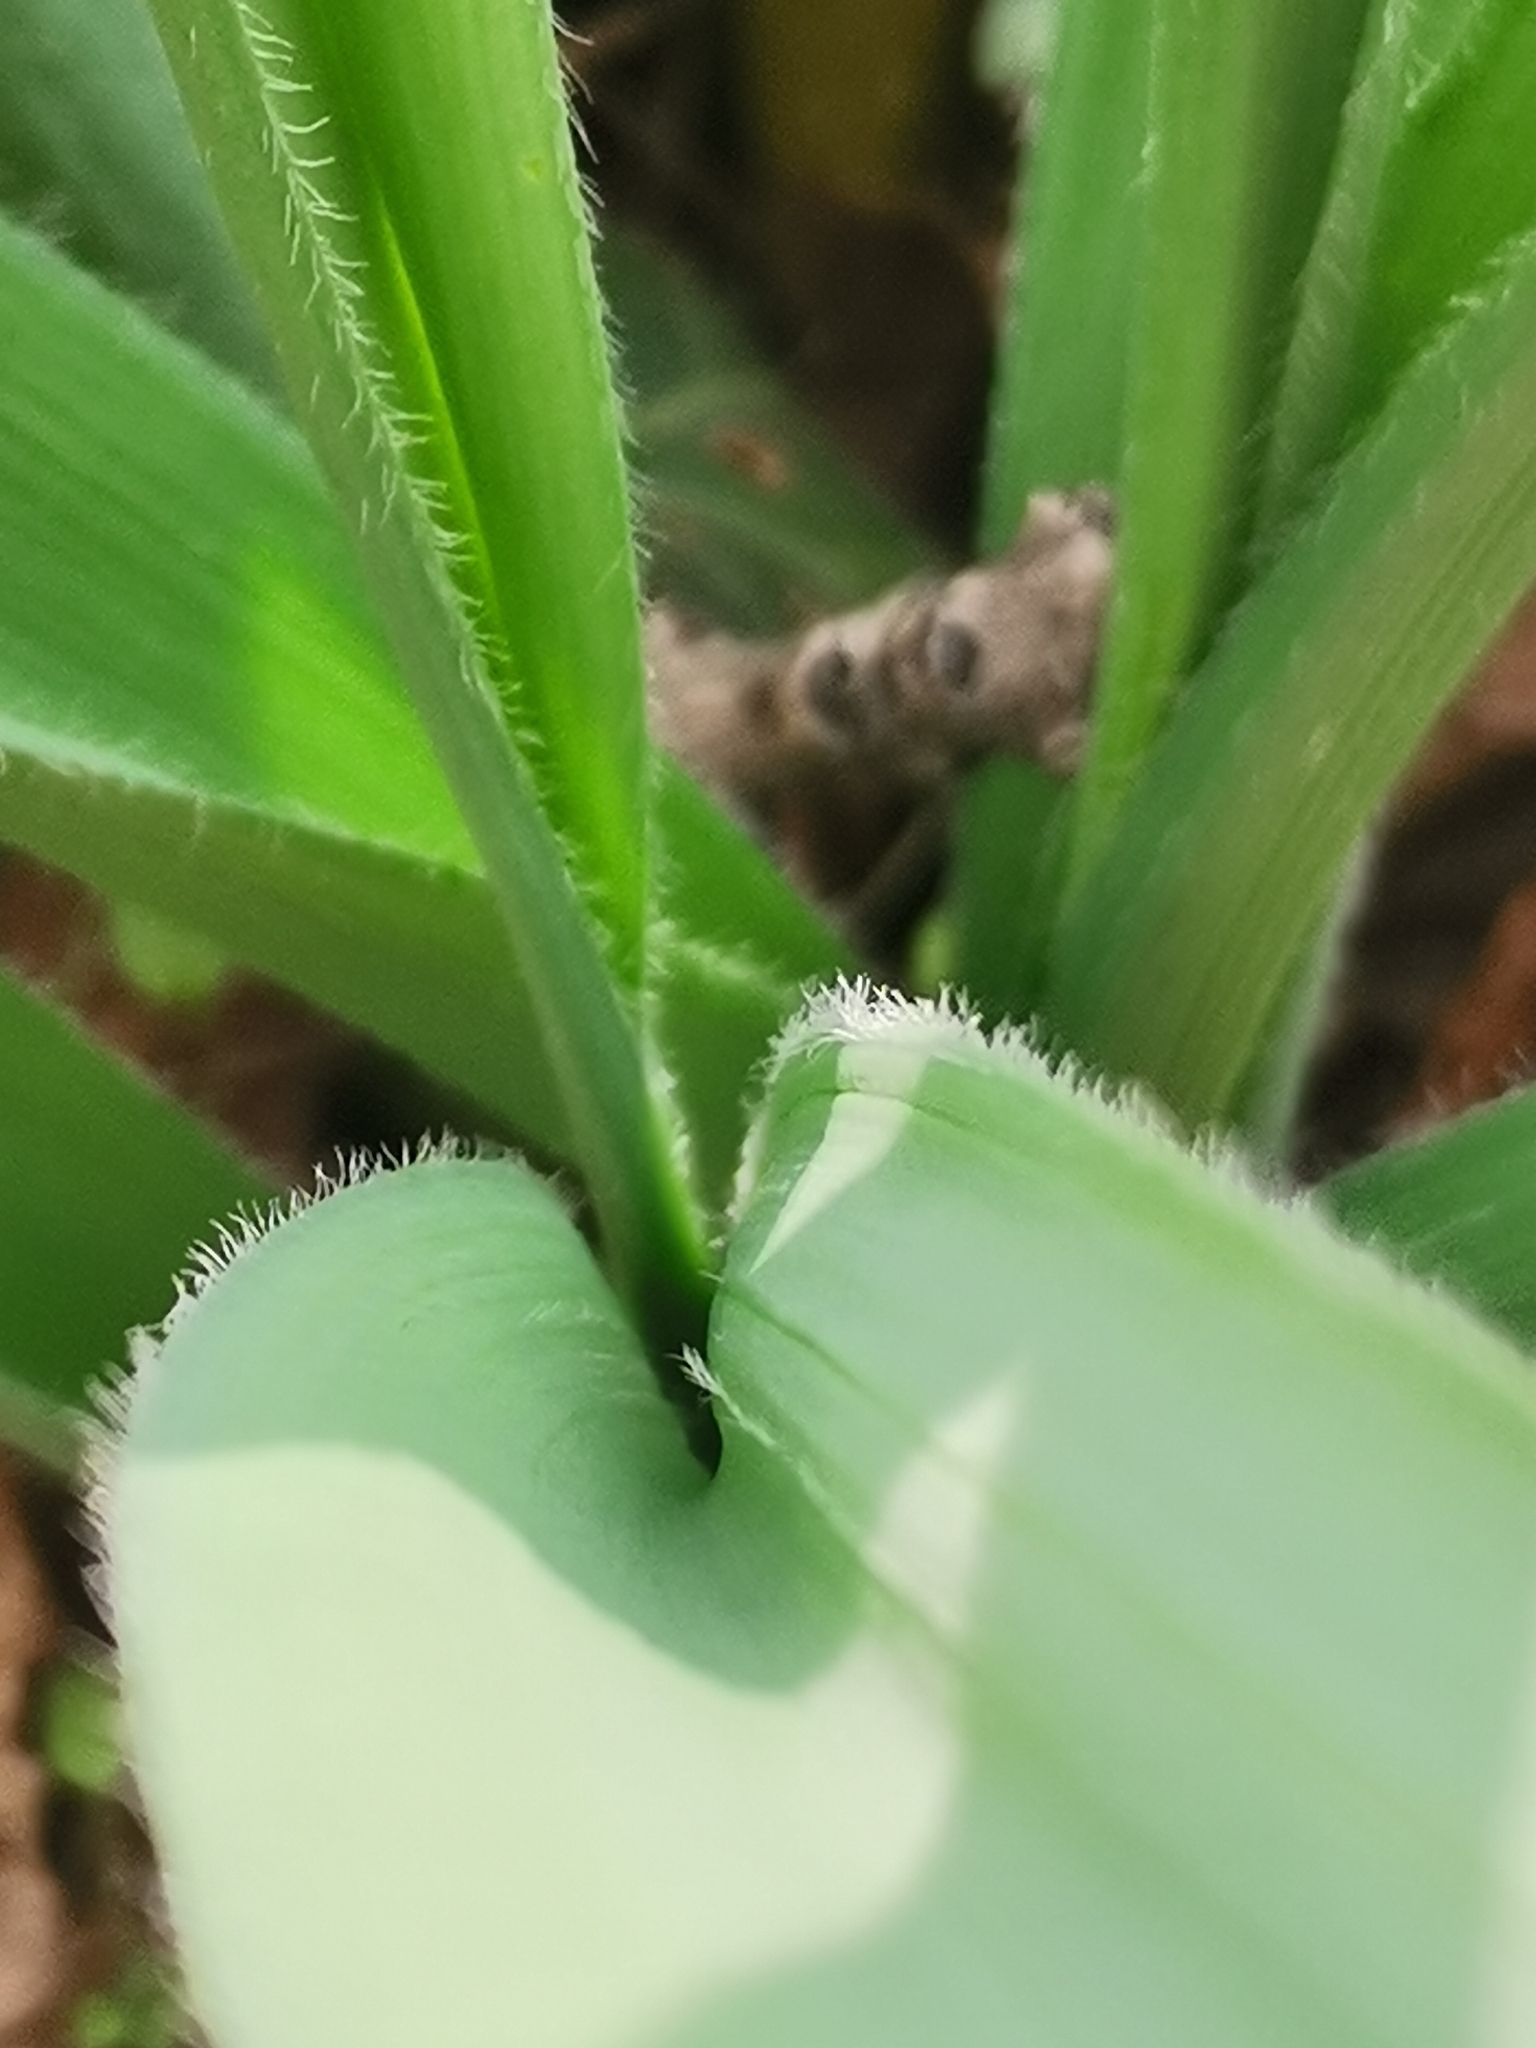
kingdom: Plantae
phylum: Tracheophyta
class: Liliopsida
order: Asparagales
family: Amaryllidaceae
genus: Allium
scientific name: Allium stipitatum
